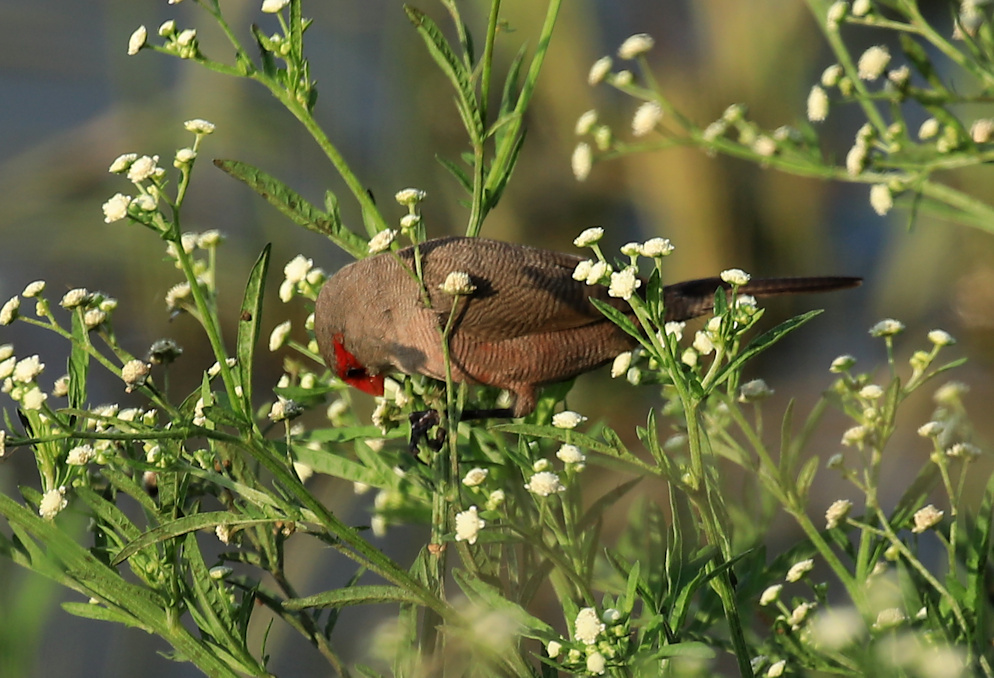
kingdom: Animalia
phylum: Chordata
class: Aves
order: Passeriformes
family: Estrildidae
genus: Estrilda
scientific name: Estrilda astrild
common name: Common waxbill
